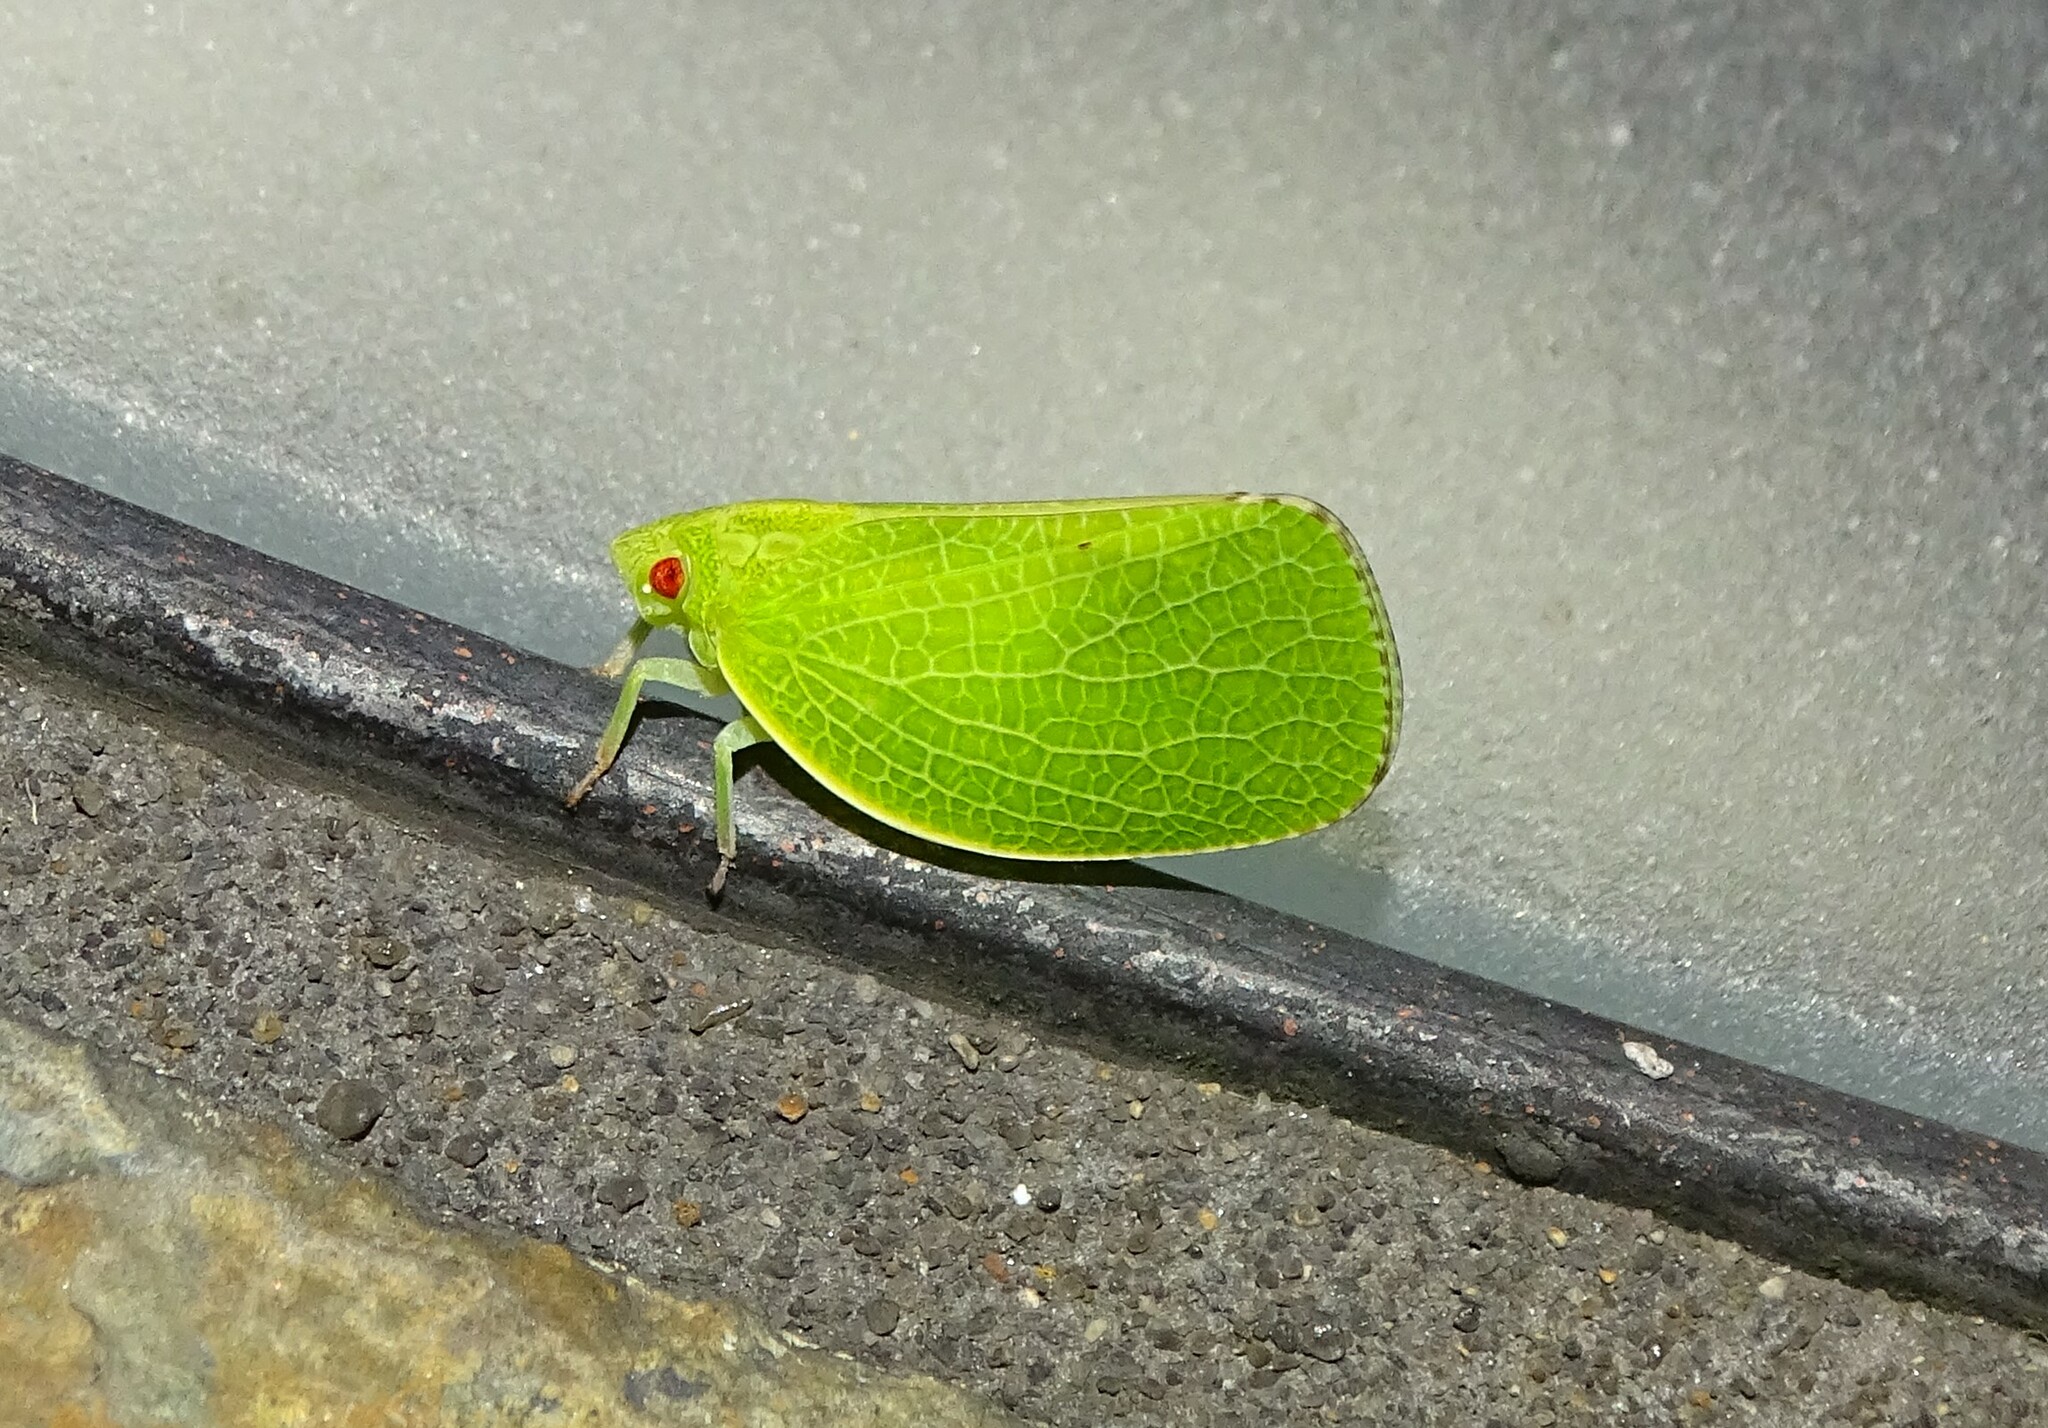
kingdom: Animalia
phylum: Arthropoda
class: Insecta
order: Hemiptera
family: Acanaloniidae
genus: Acanalonia
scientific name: Acanalonia conica
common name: Green cone-headed planthopper
